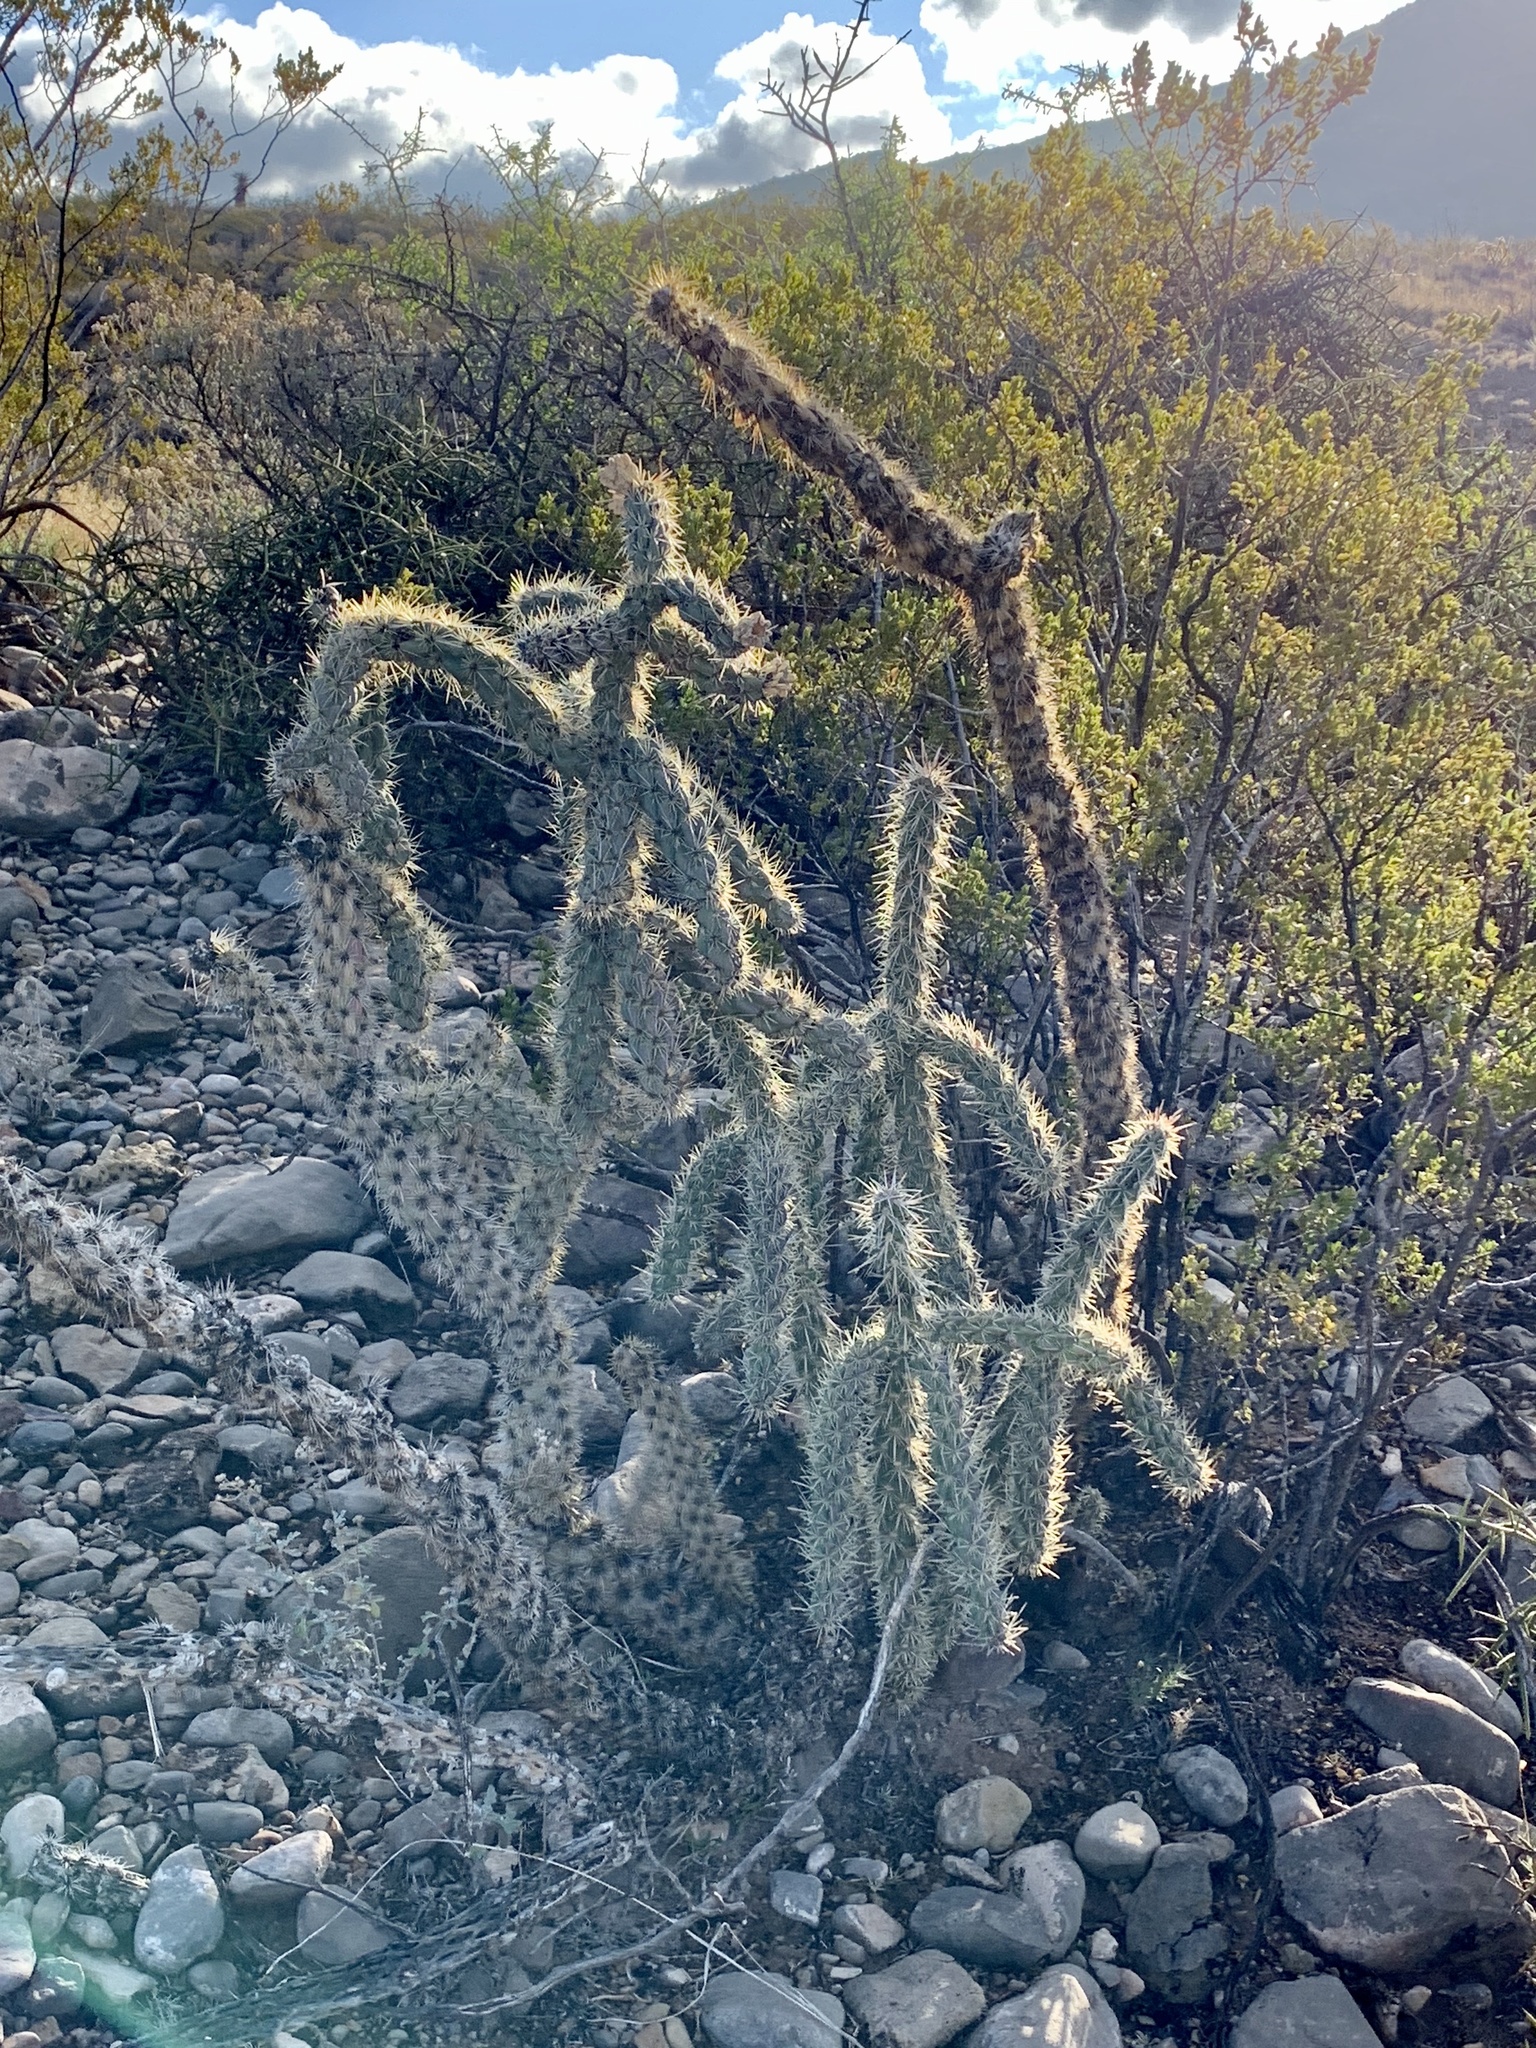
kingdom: Plantae
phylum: Tracheophyta
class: Magnoliopsida
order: Caryophyllales
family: Cactaceae
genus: Cylindropuntia
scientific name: Cylindropuntia imbricata
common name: Candelabrum cactus
